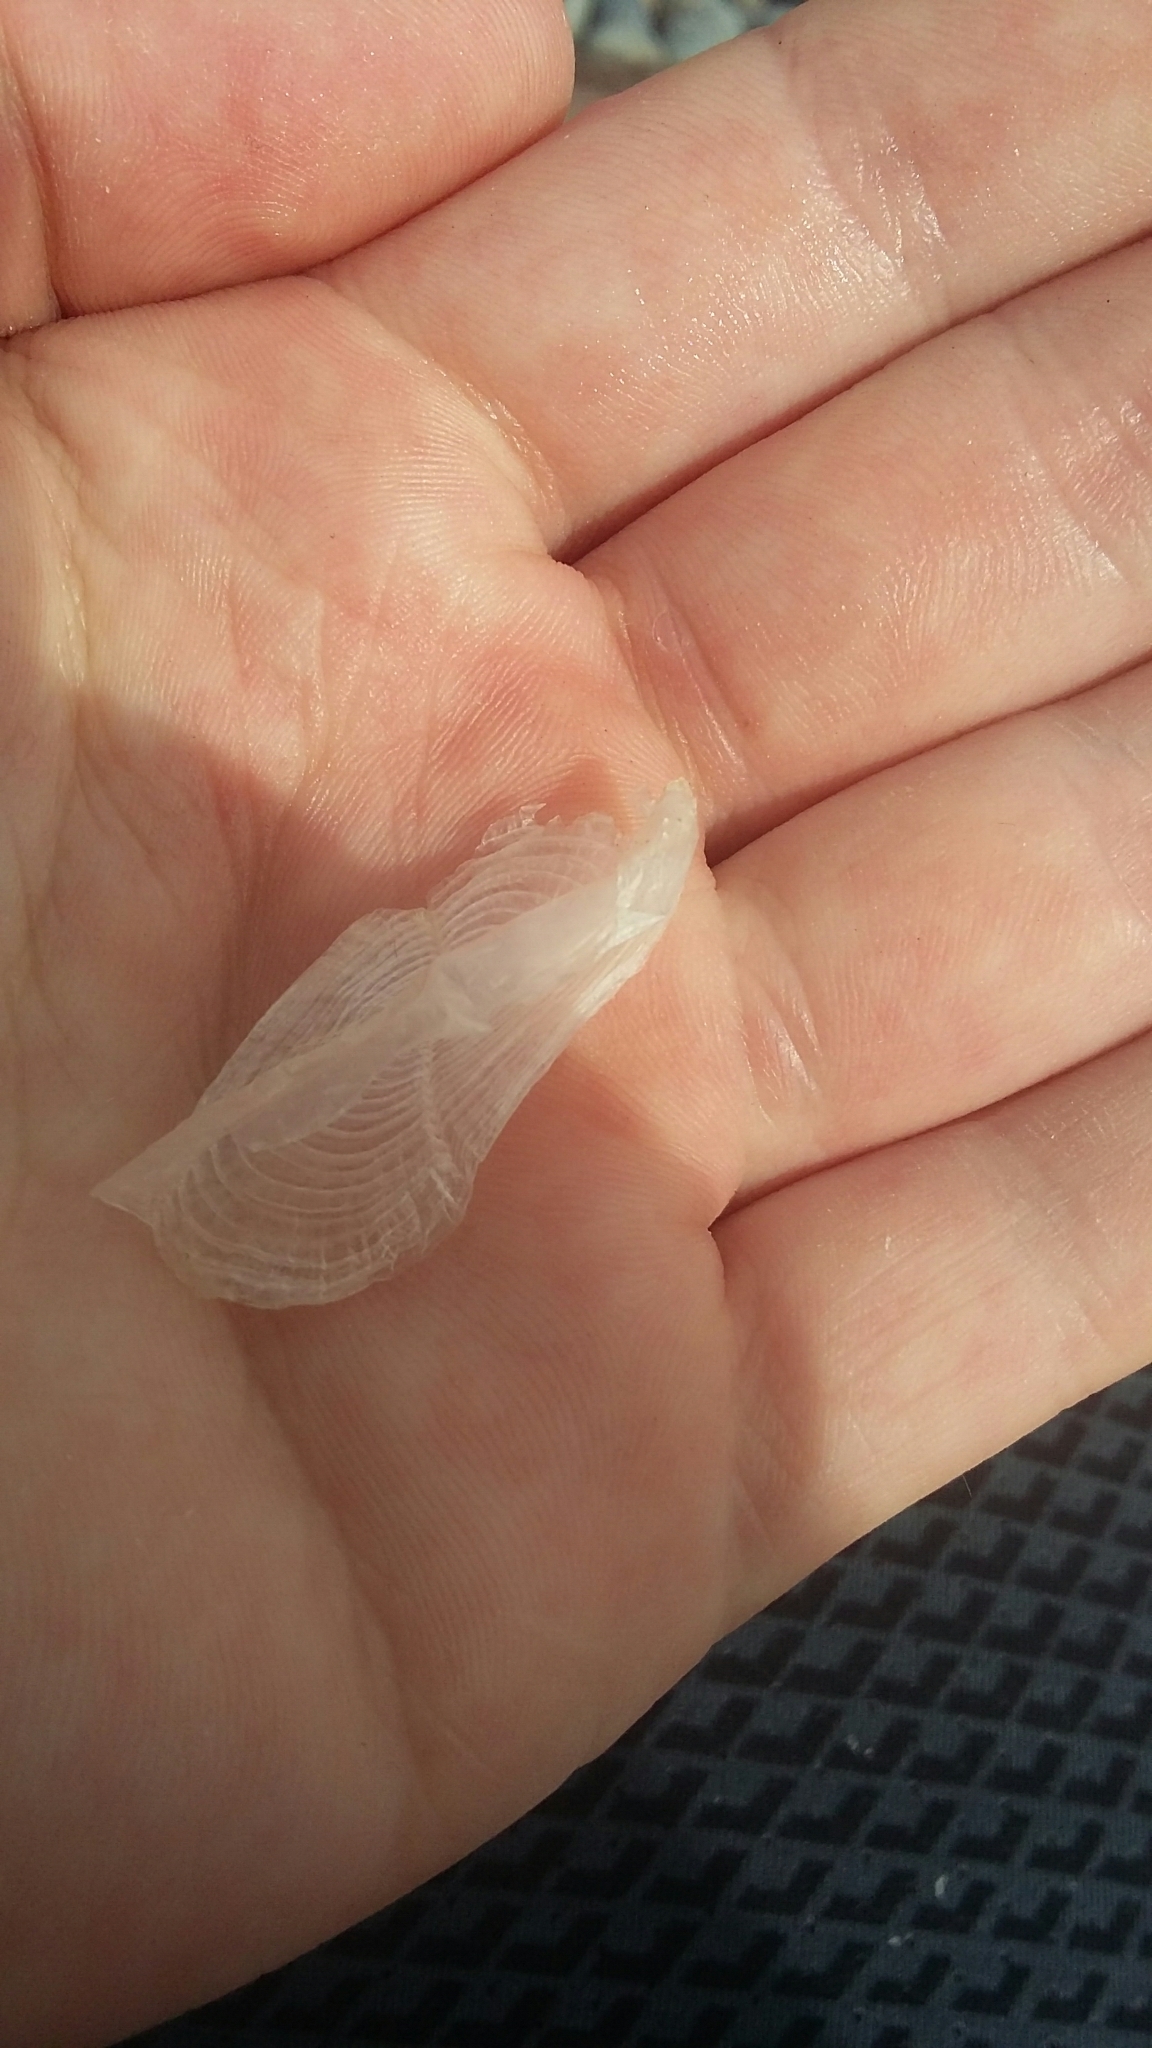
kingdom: Animalia
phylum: Cnidaria
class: Hydrozoa
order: Anthoathecata
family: Porpitidae
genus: Velella
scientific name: Velella velella
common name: By-the-wind-sailor
